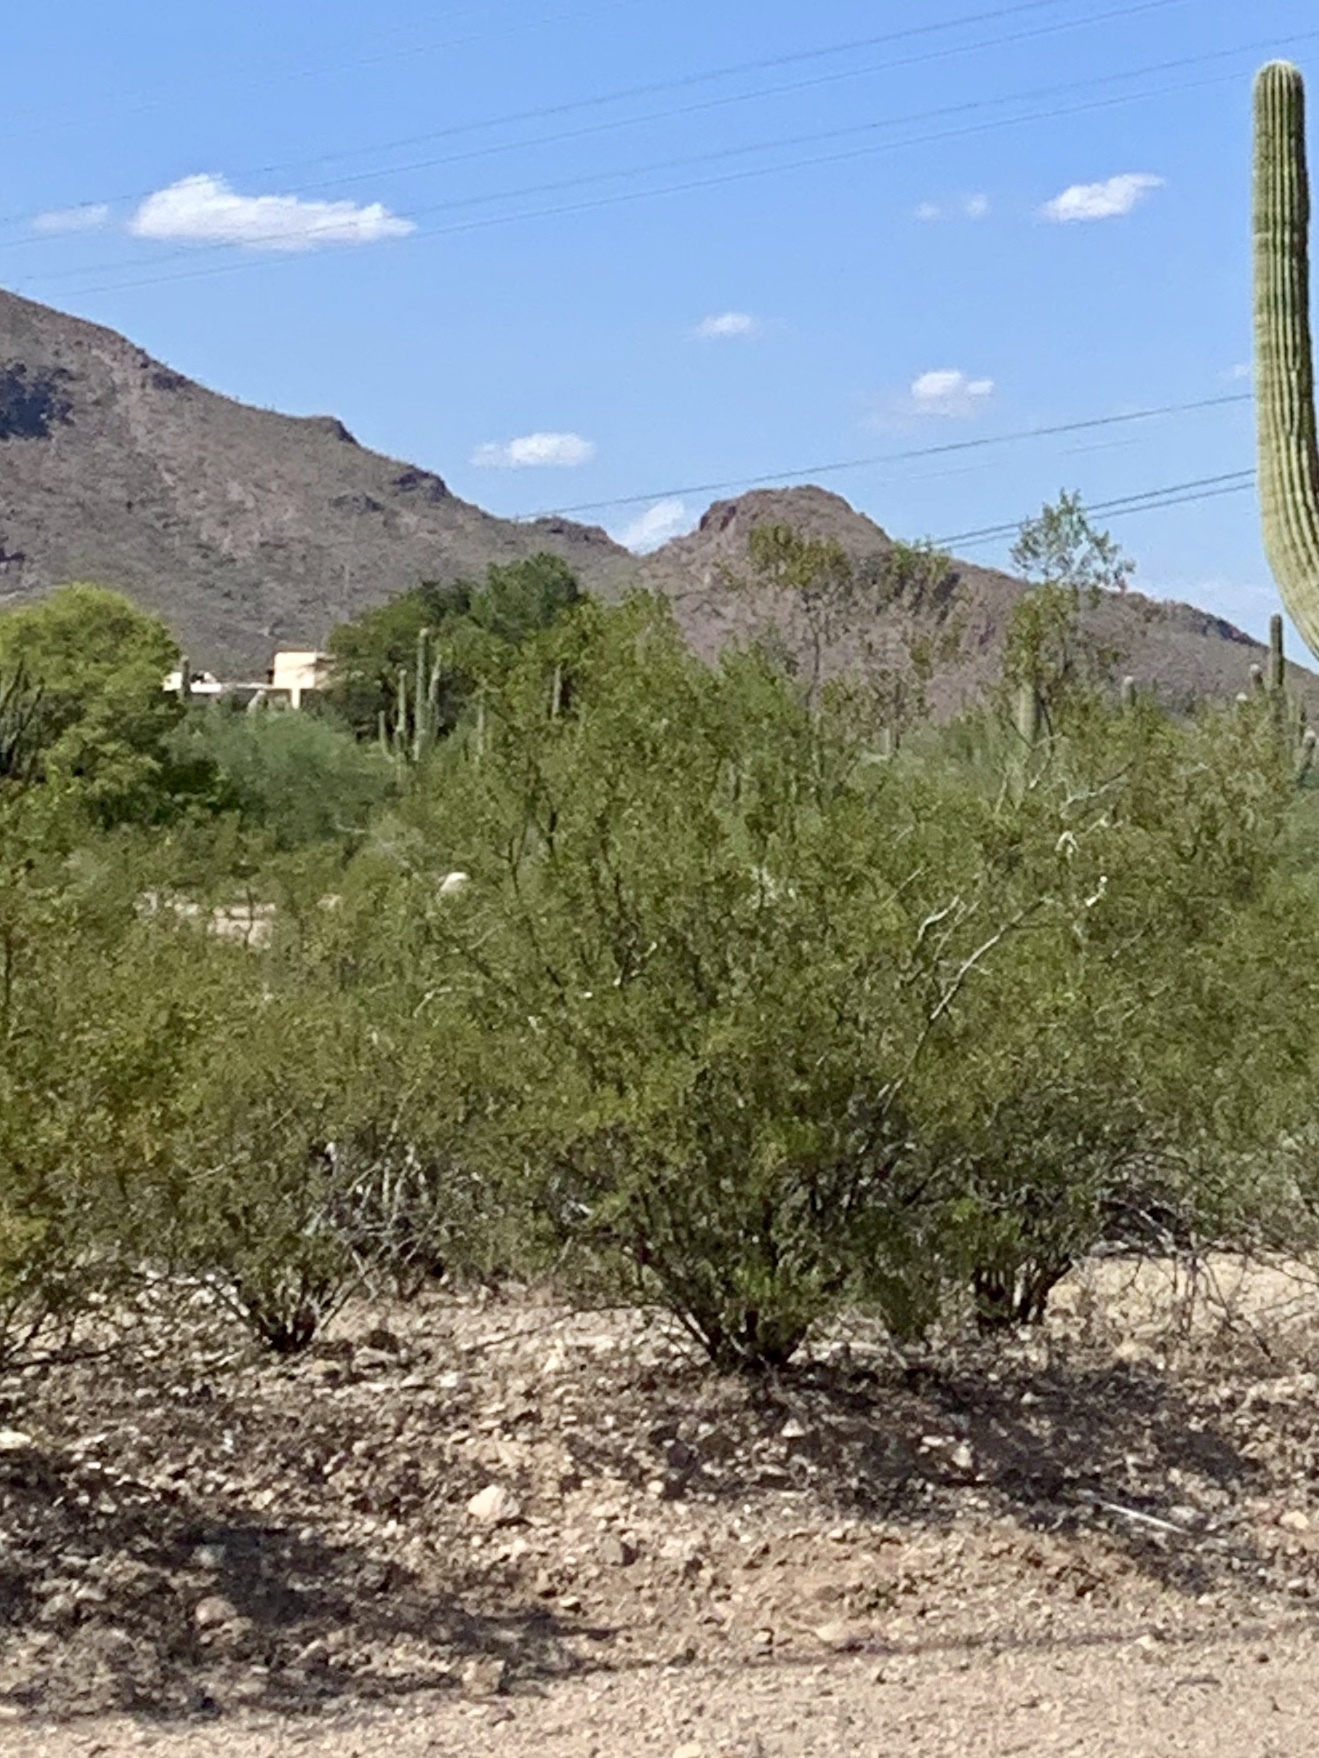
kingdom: Plantae
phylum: Tracheophyta
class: Magnoliopsida
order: Zygophyllales
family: Zygophyllaceae
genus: Larrea
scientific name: Larrea tridentata
